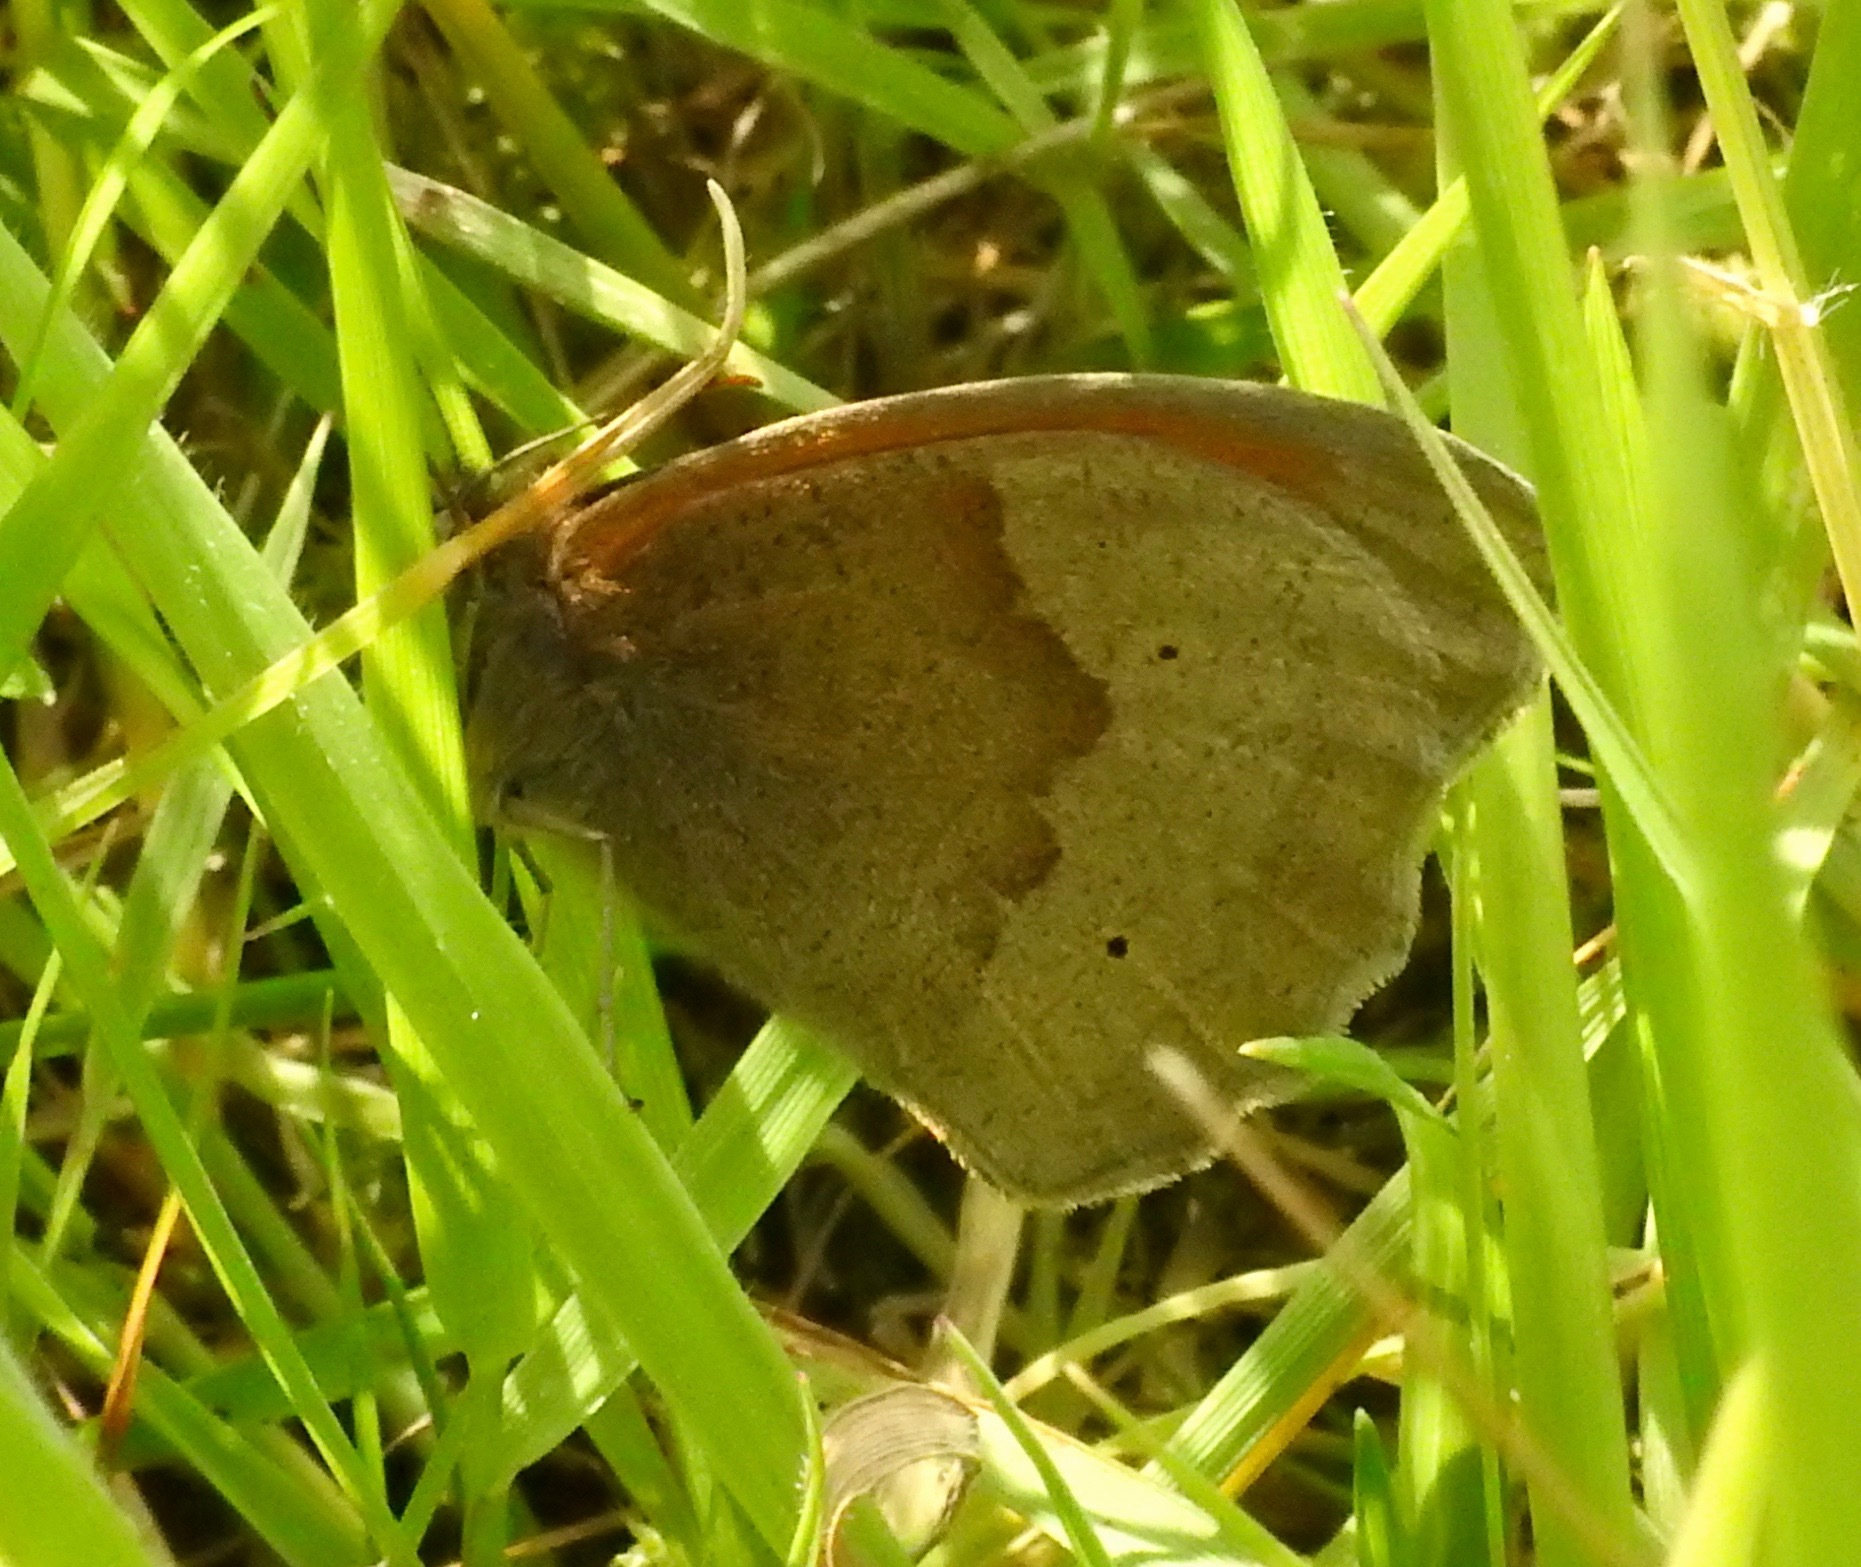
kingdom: Animalia
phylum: Arthropoda
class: Insecta
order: Lepidoptera
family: Nymphalidae
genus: Maniola
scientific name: Maniola jurtina
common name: Meadow brown
